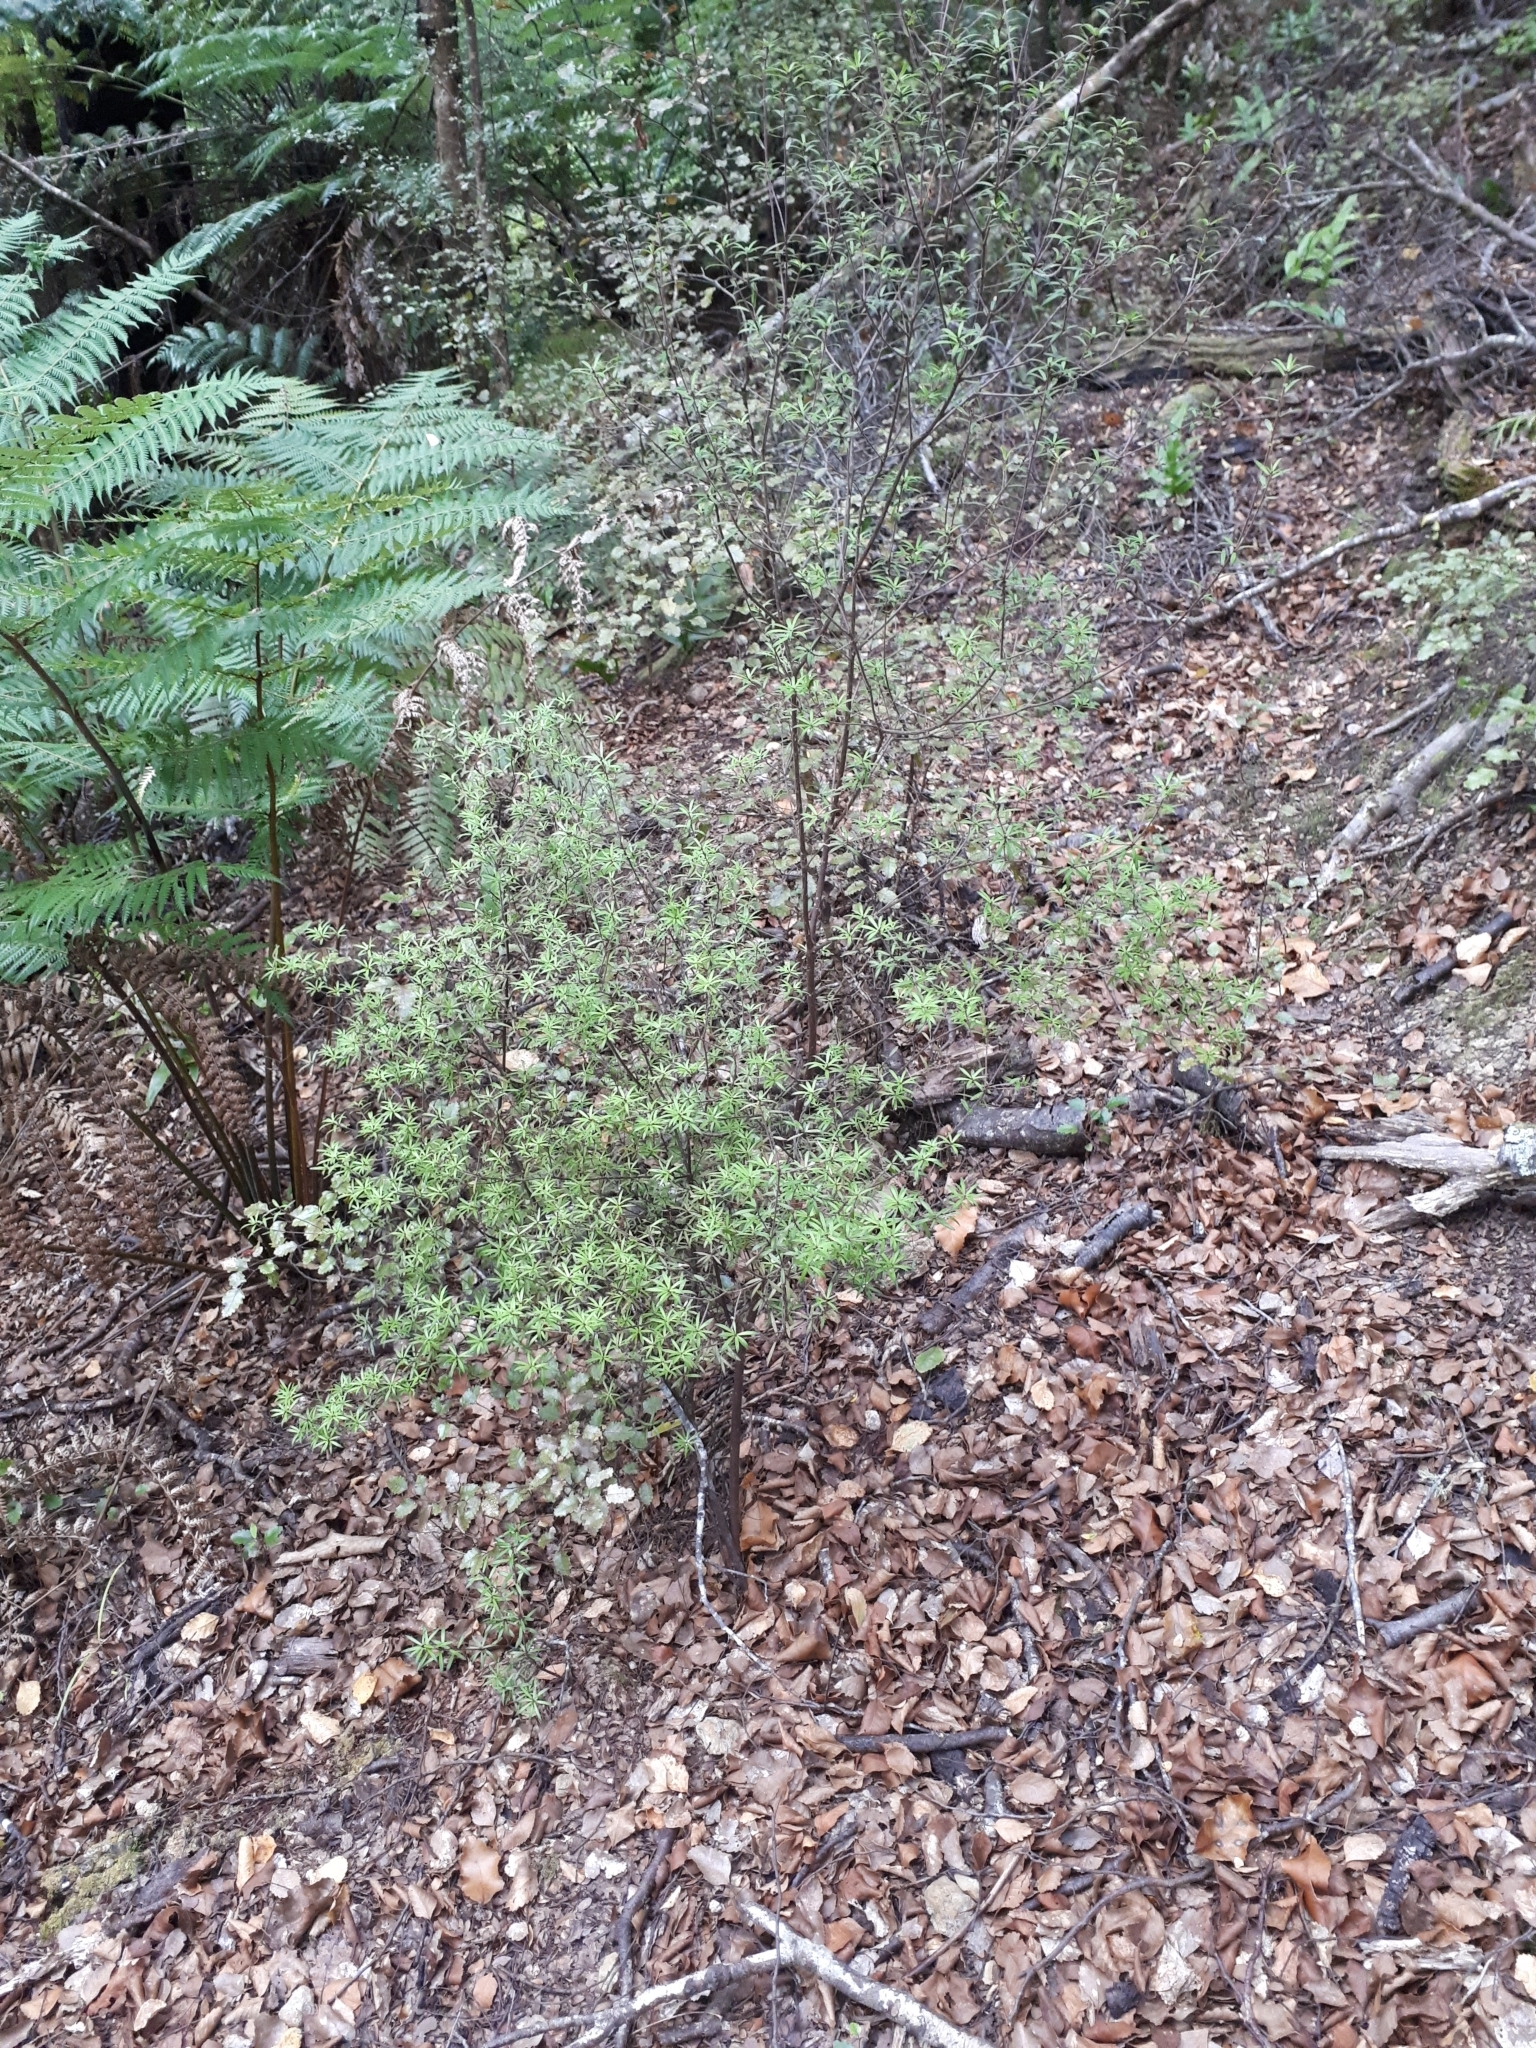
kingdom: Plantae
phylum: Tracheophyta
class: Magnoliopsida
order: Ericales
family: Ericaceae
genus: Leucopogon
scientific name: Leucopogon fasciculatus
